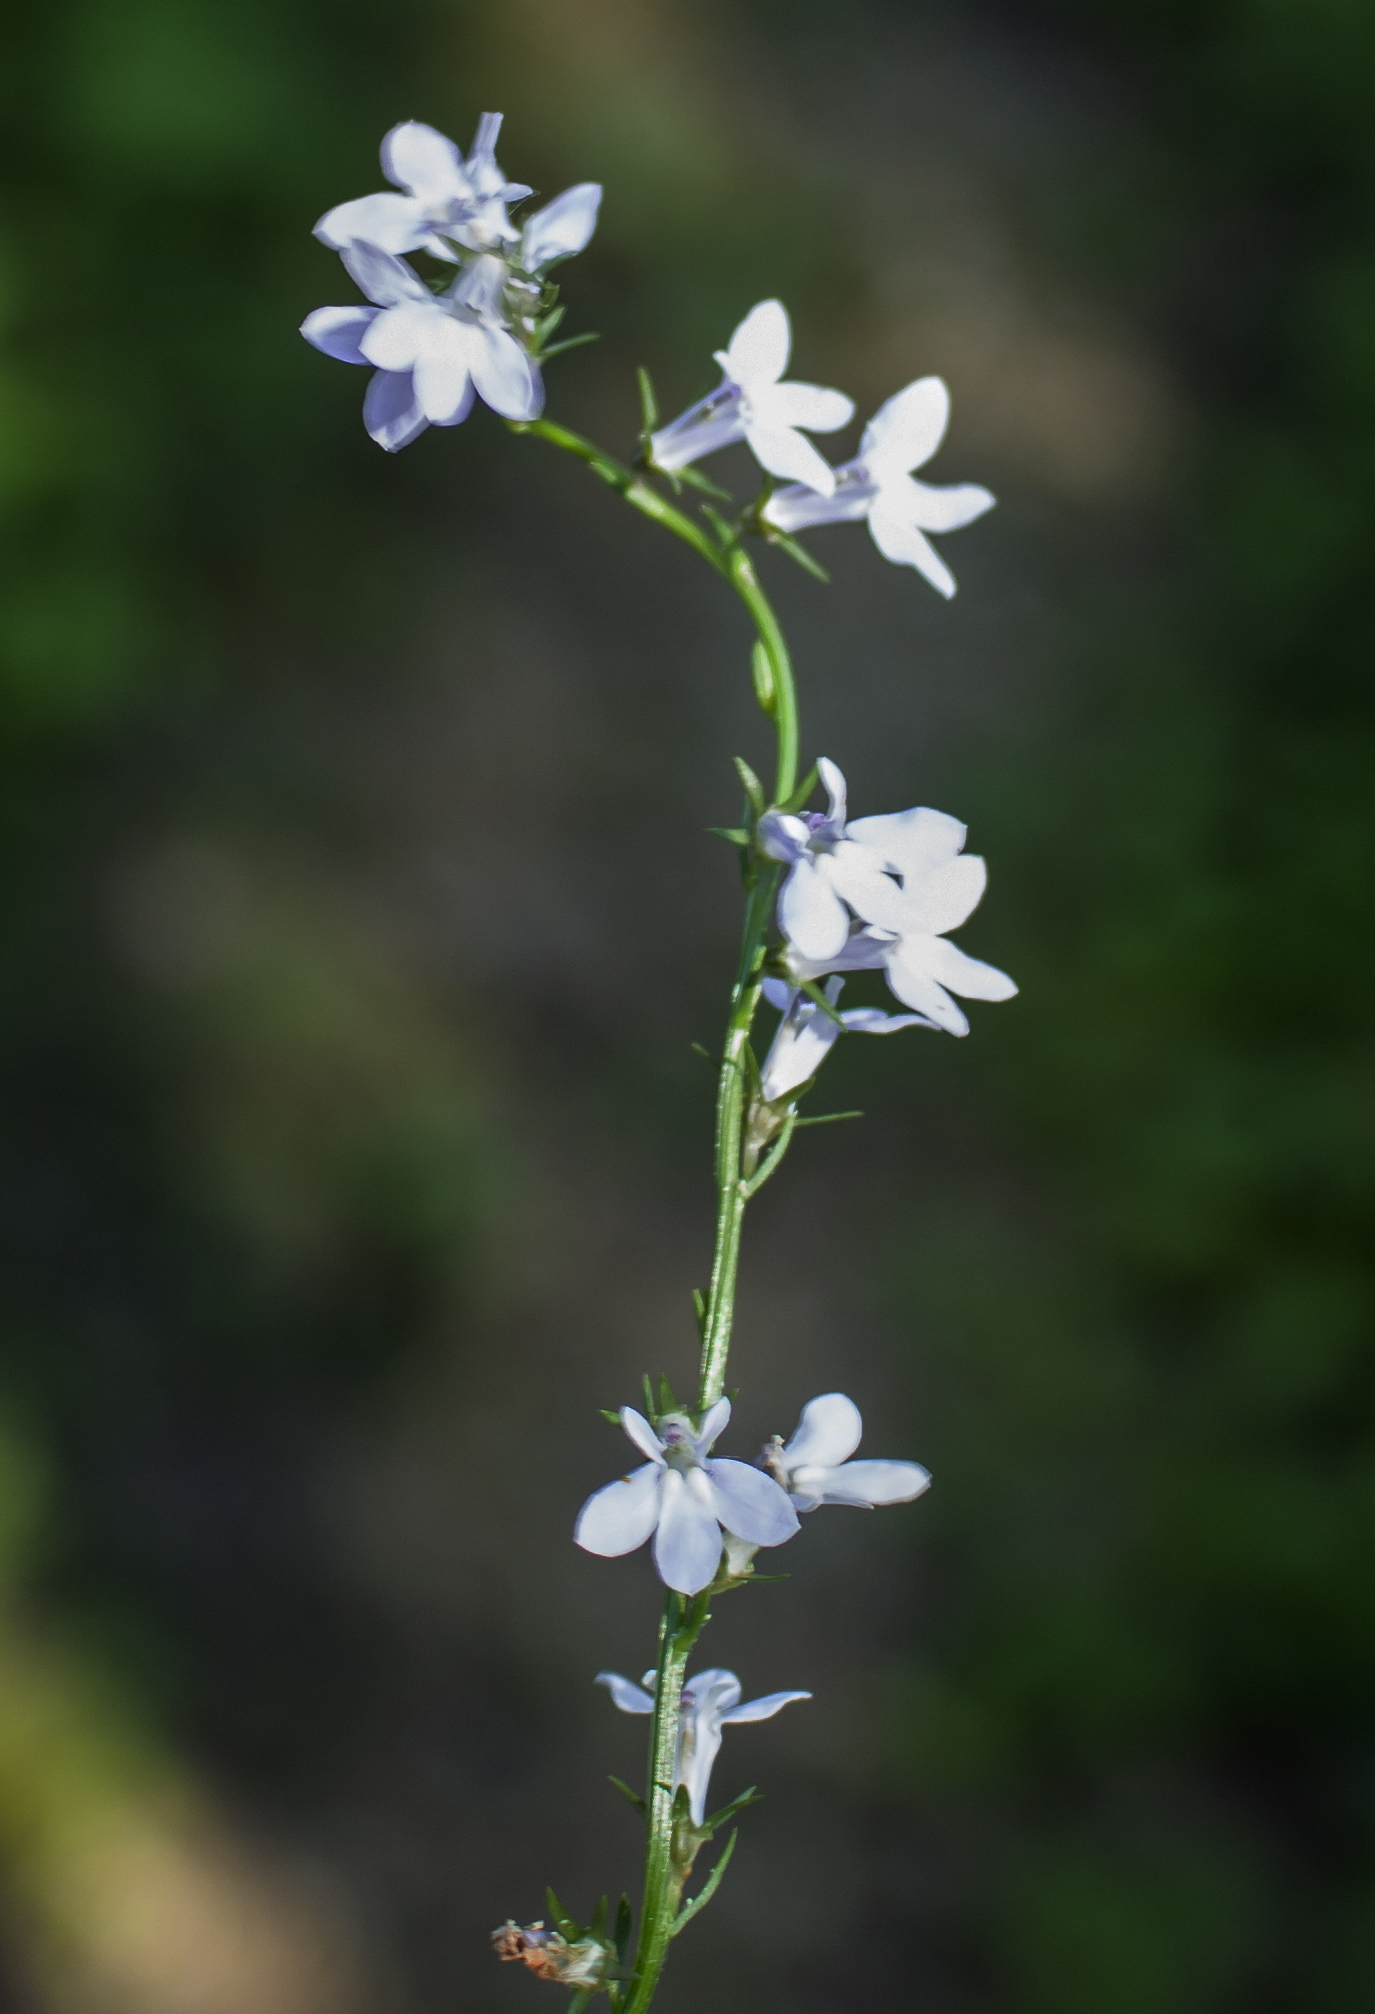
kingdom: Plantae
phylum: Tracheophyta
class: Magnoliopsida
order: Asterales
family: Campanulaceae
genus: Lobelia
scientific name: Lobelia spicata
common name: Pale-spike lobelia
